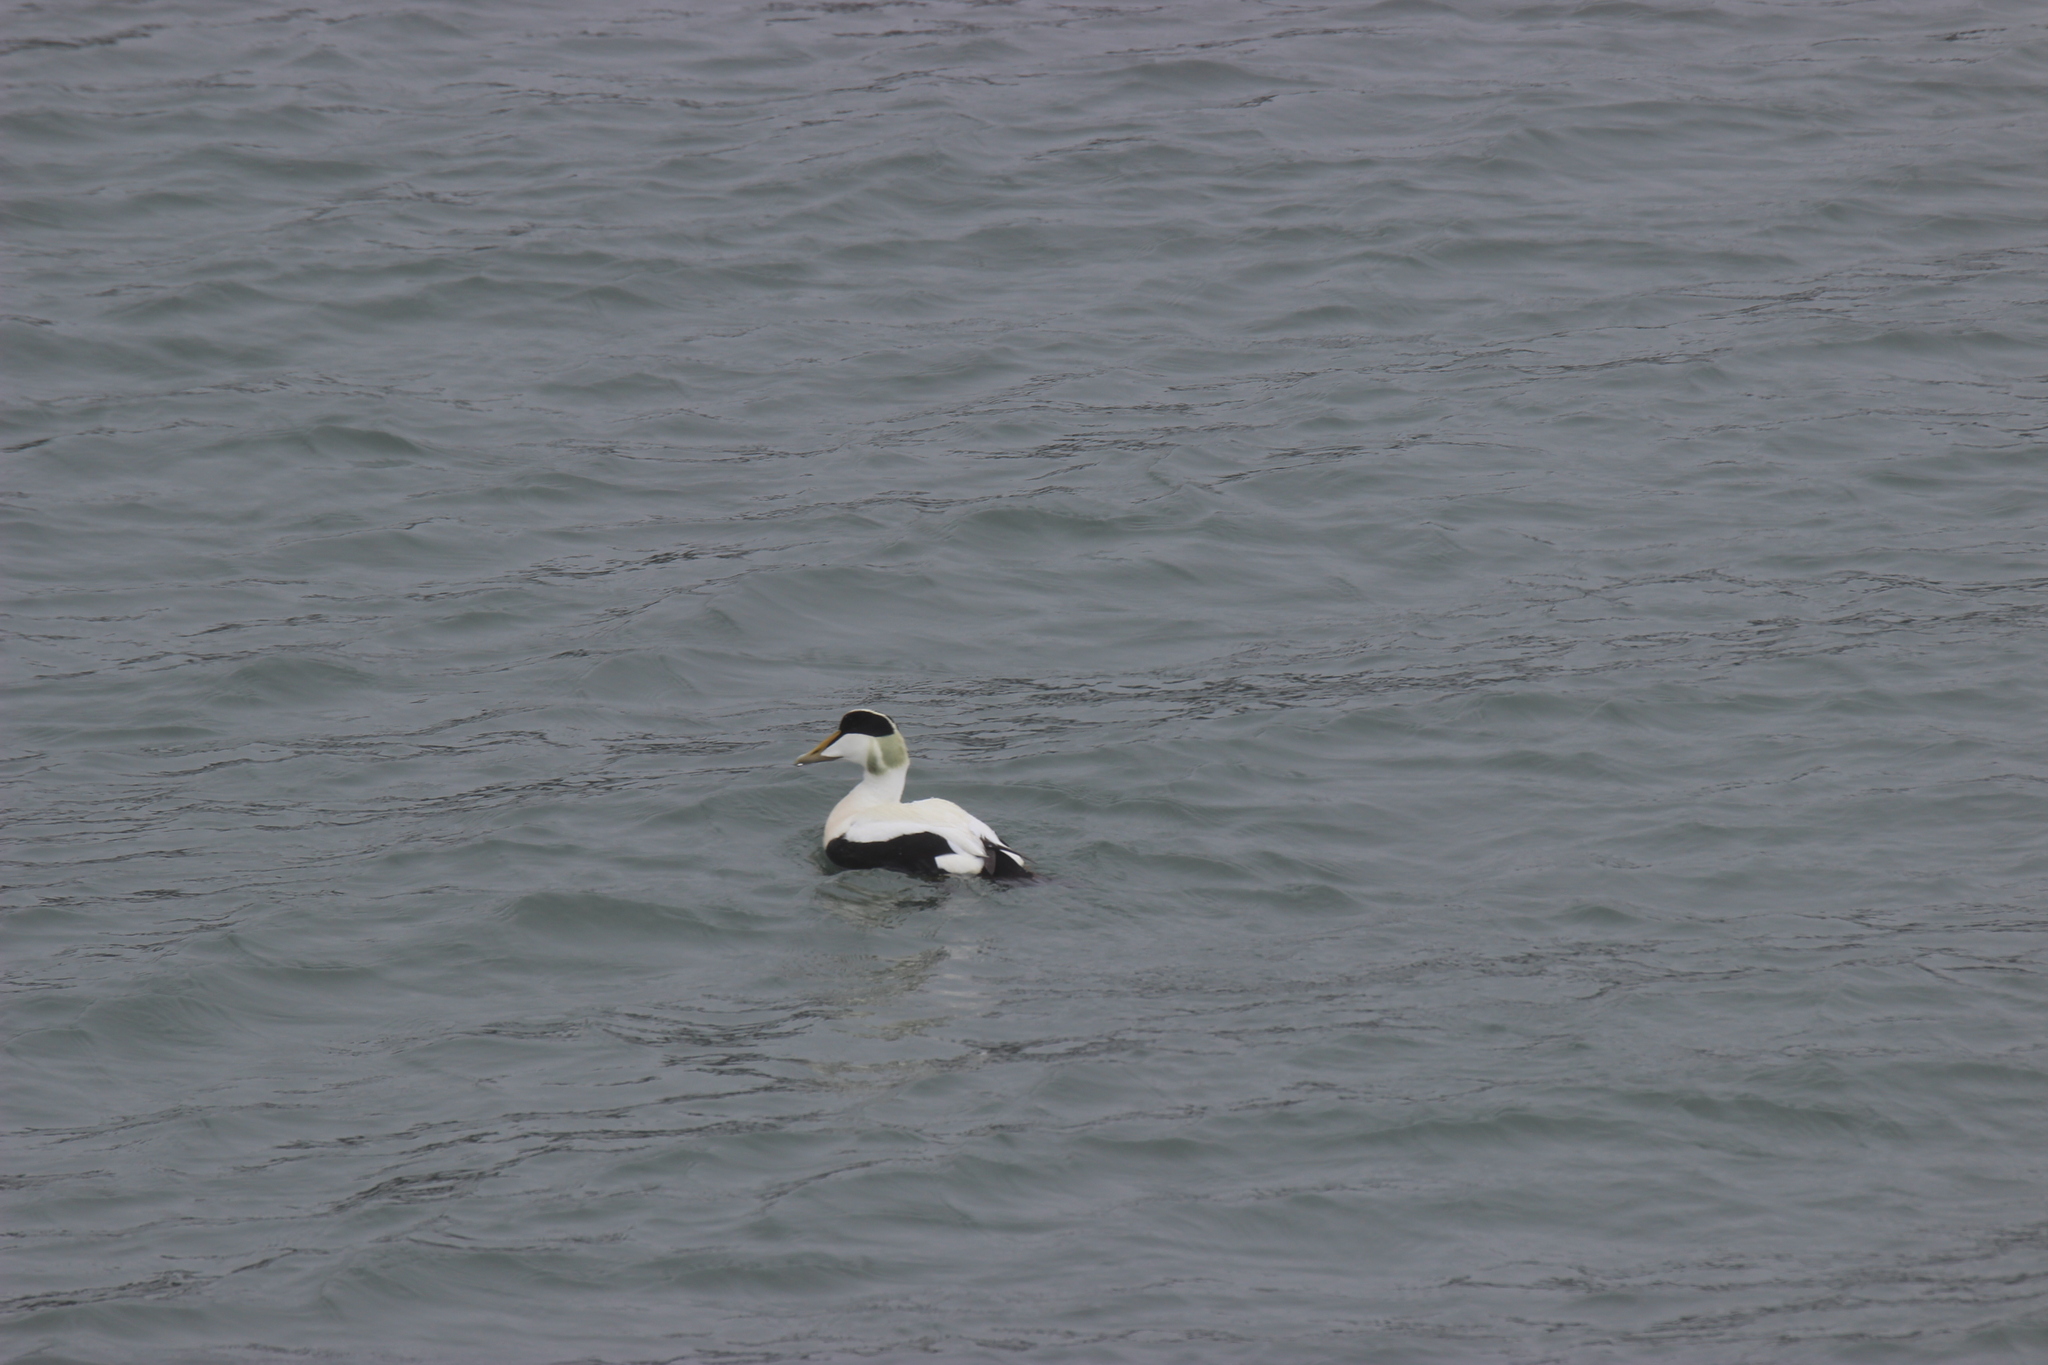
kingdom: Animalia
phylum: Chordata
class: Aves
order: Anseriformes
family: Anatidae
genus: Somateria
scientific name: Somateria mollissima
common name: Common eider
